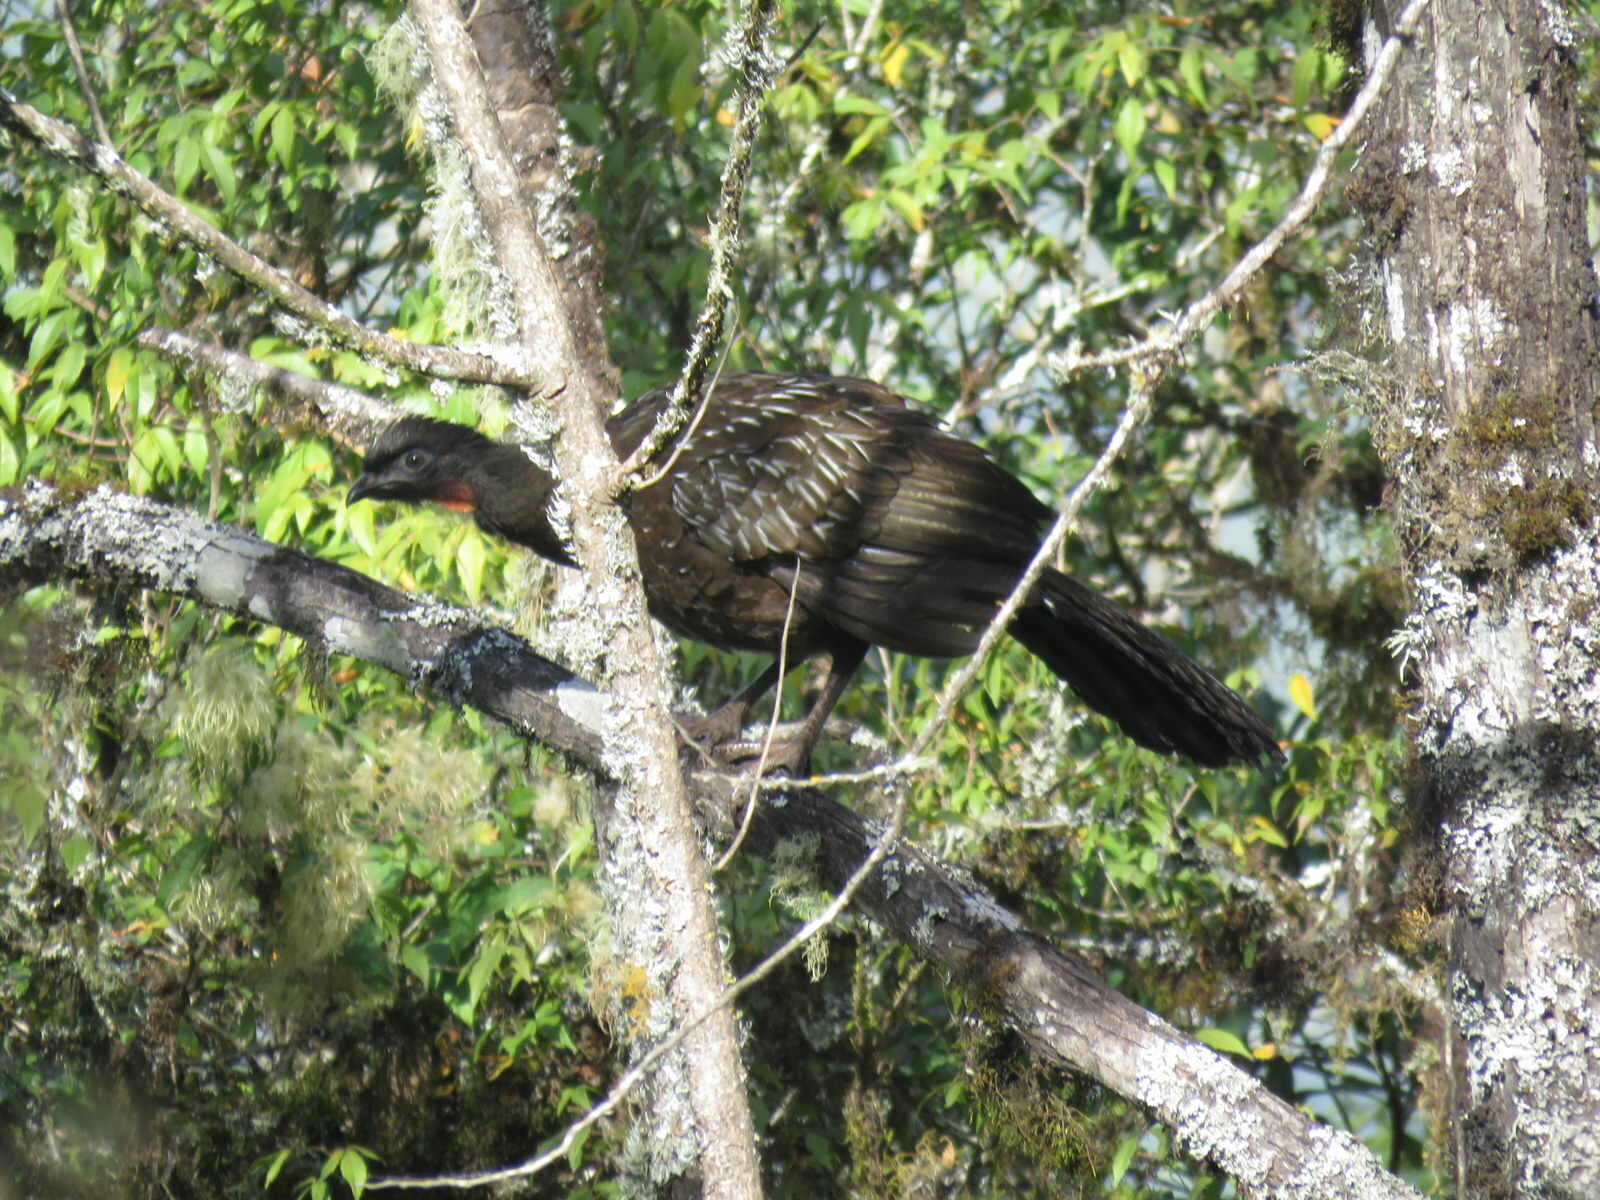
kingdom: Animalia
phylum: Chordata
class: Aves
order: Galliformes
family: Cracidae
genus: Penelope
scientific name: Penelope bridgesi
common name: Yungas guan
